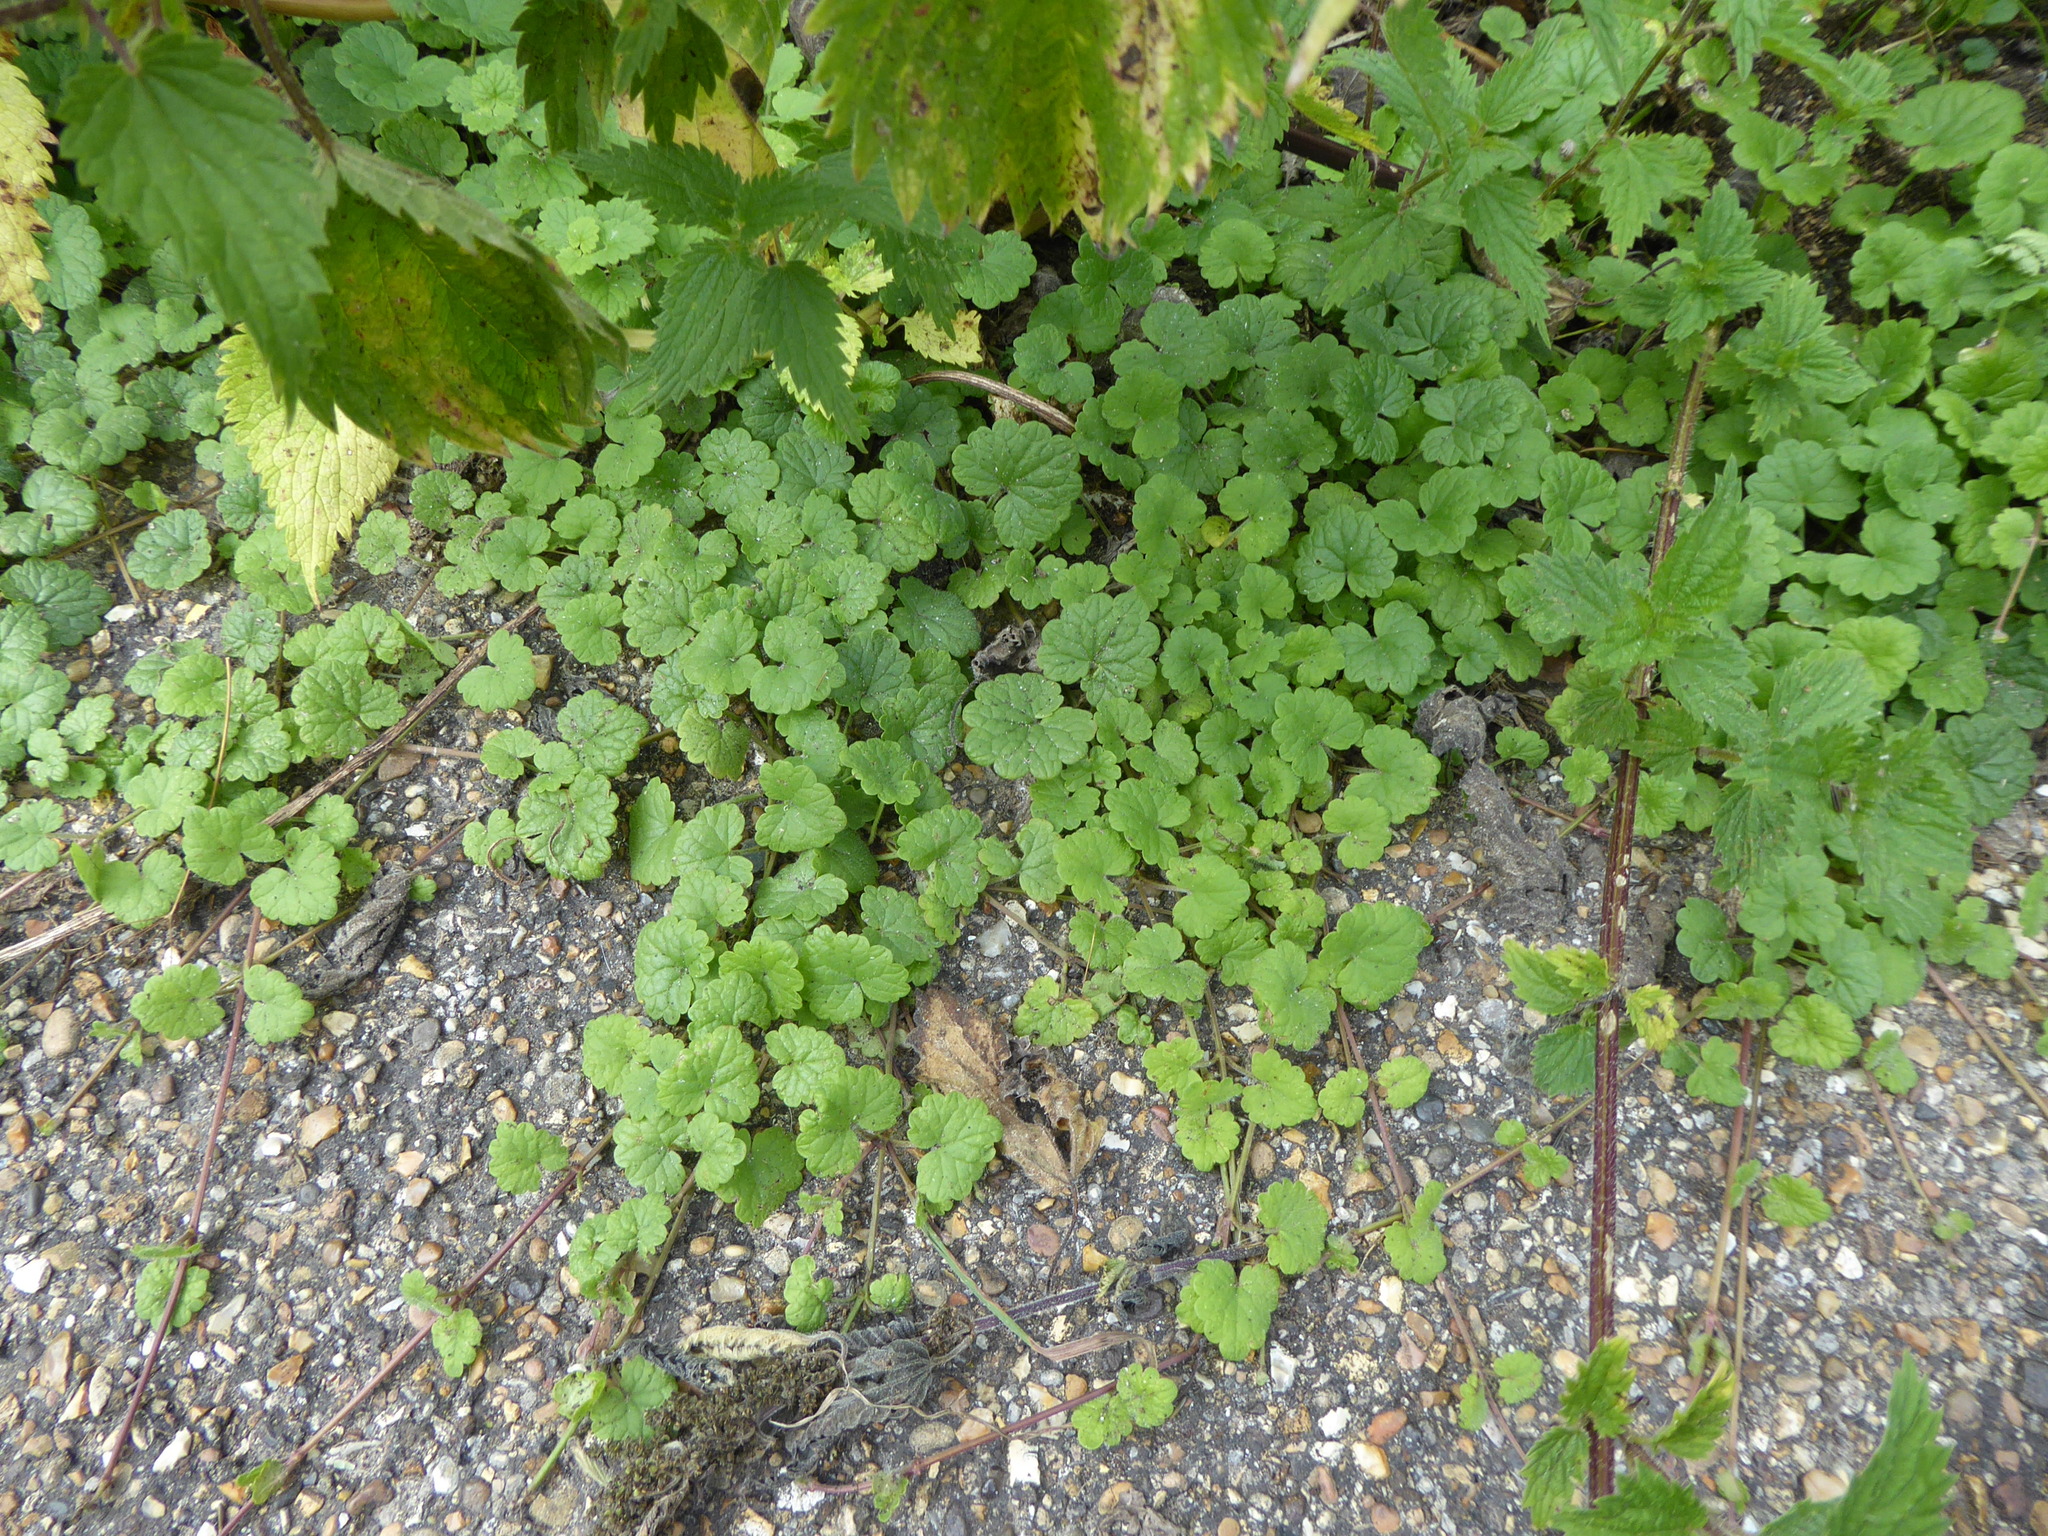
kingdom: Plantae
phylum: Tracheophyta
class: Magnoliopsida
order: Lamiales
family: Lamiaceae
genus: Glechoma
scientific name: Glechoma hederacea
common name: Ground ivy
